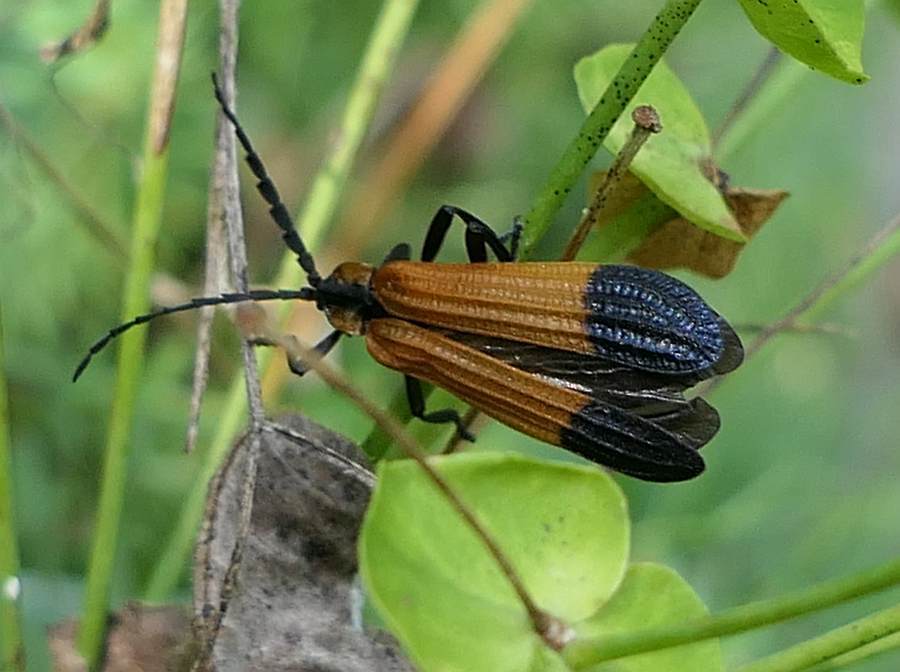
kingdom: Animalia
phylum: Arthropoda
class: Insecta
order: Coleoptera
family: Lycidae
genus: Calopteron
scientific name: Calopteron terminale
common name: End band net-winged beetle
